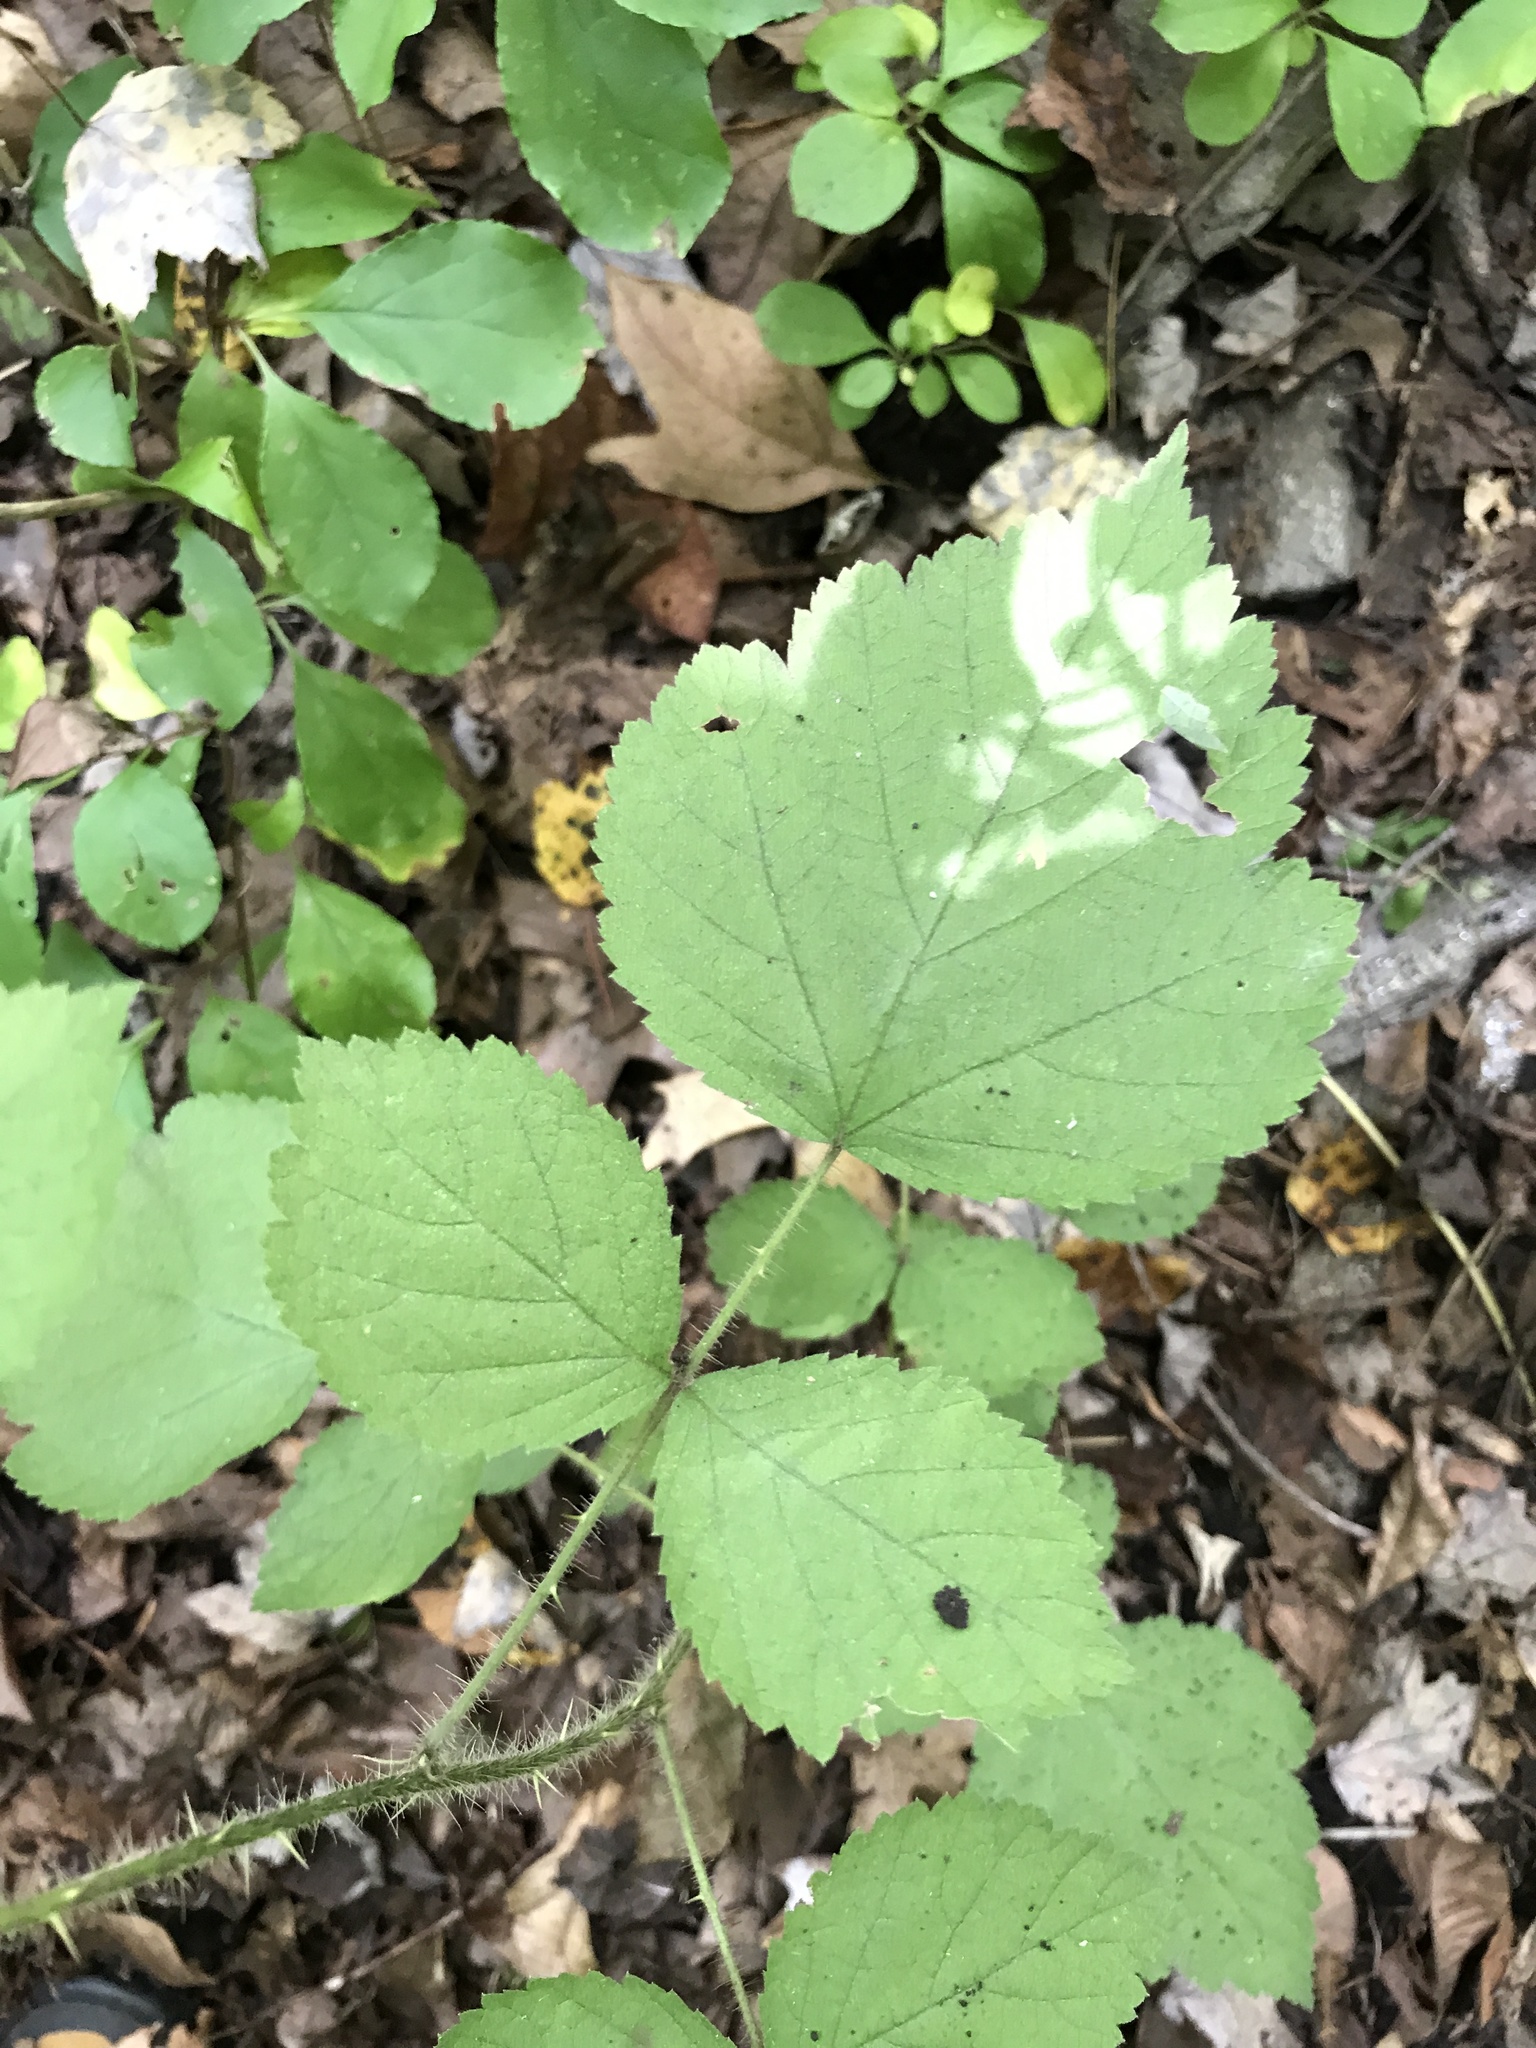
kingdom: Plantae
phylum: Tracheophyta
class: Magnoliopsida
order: Rosales
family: Rosaceae
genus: Rubus
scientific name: Rubus phoenicolasius
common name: Japanese wineberry
